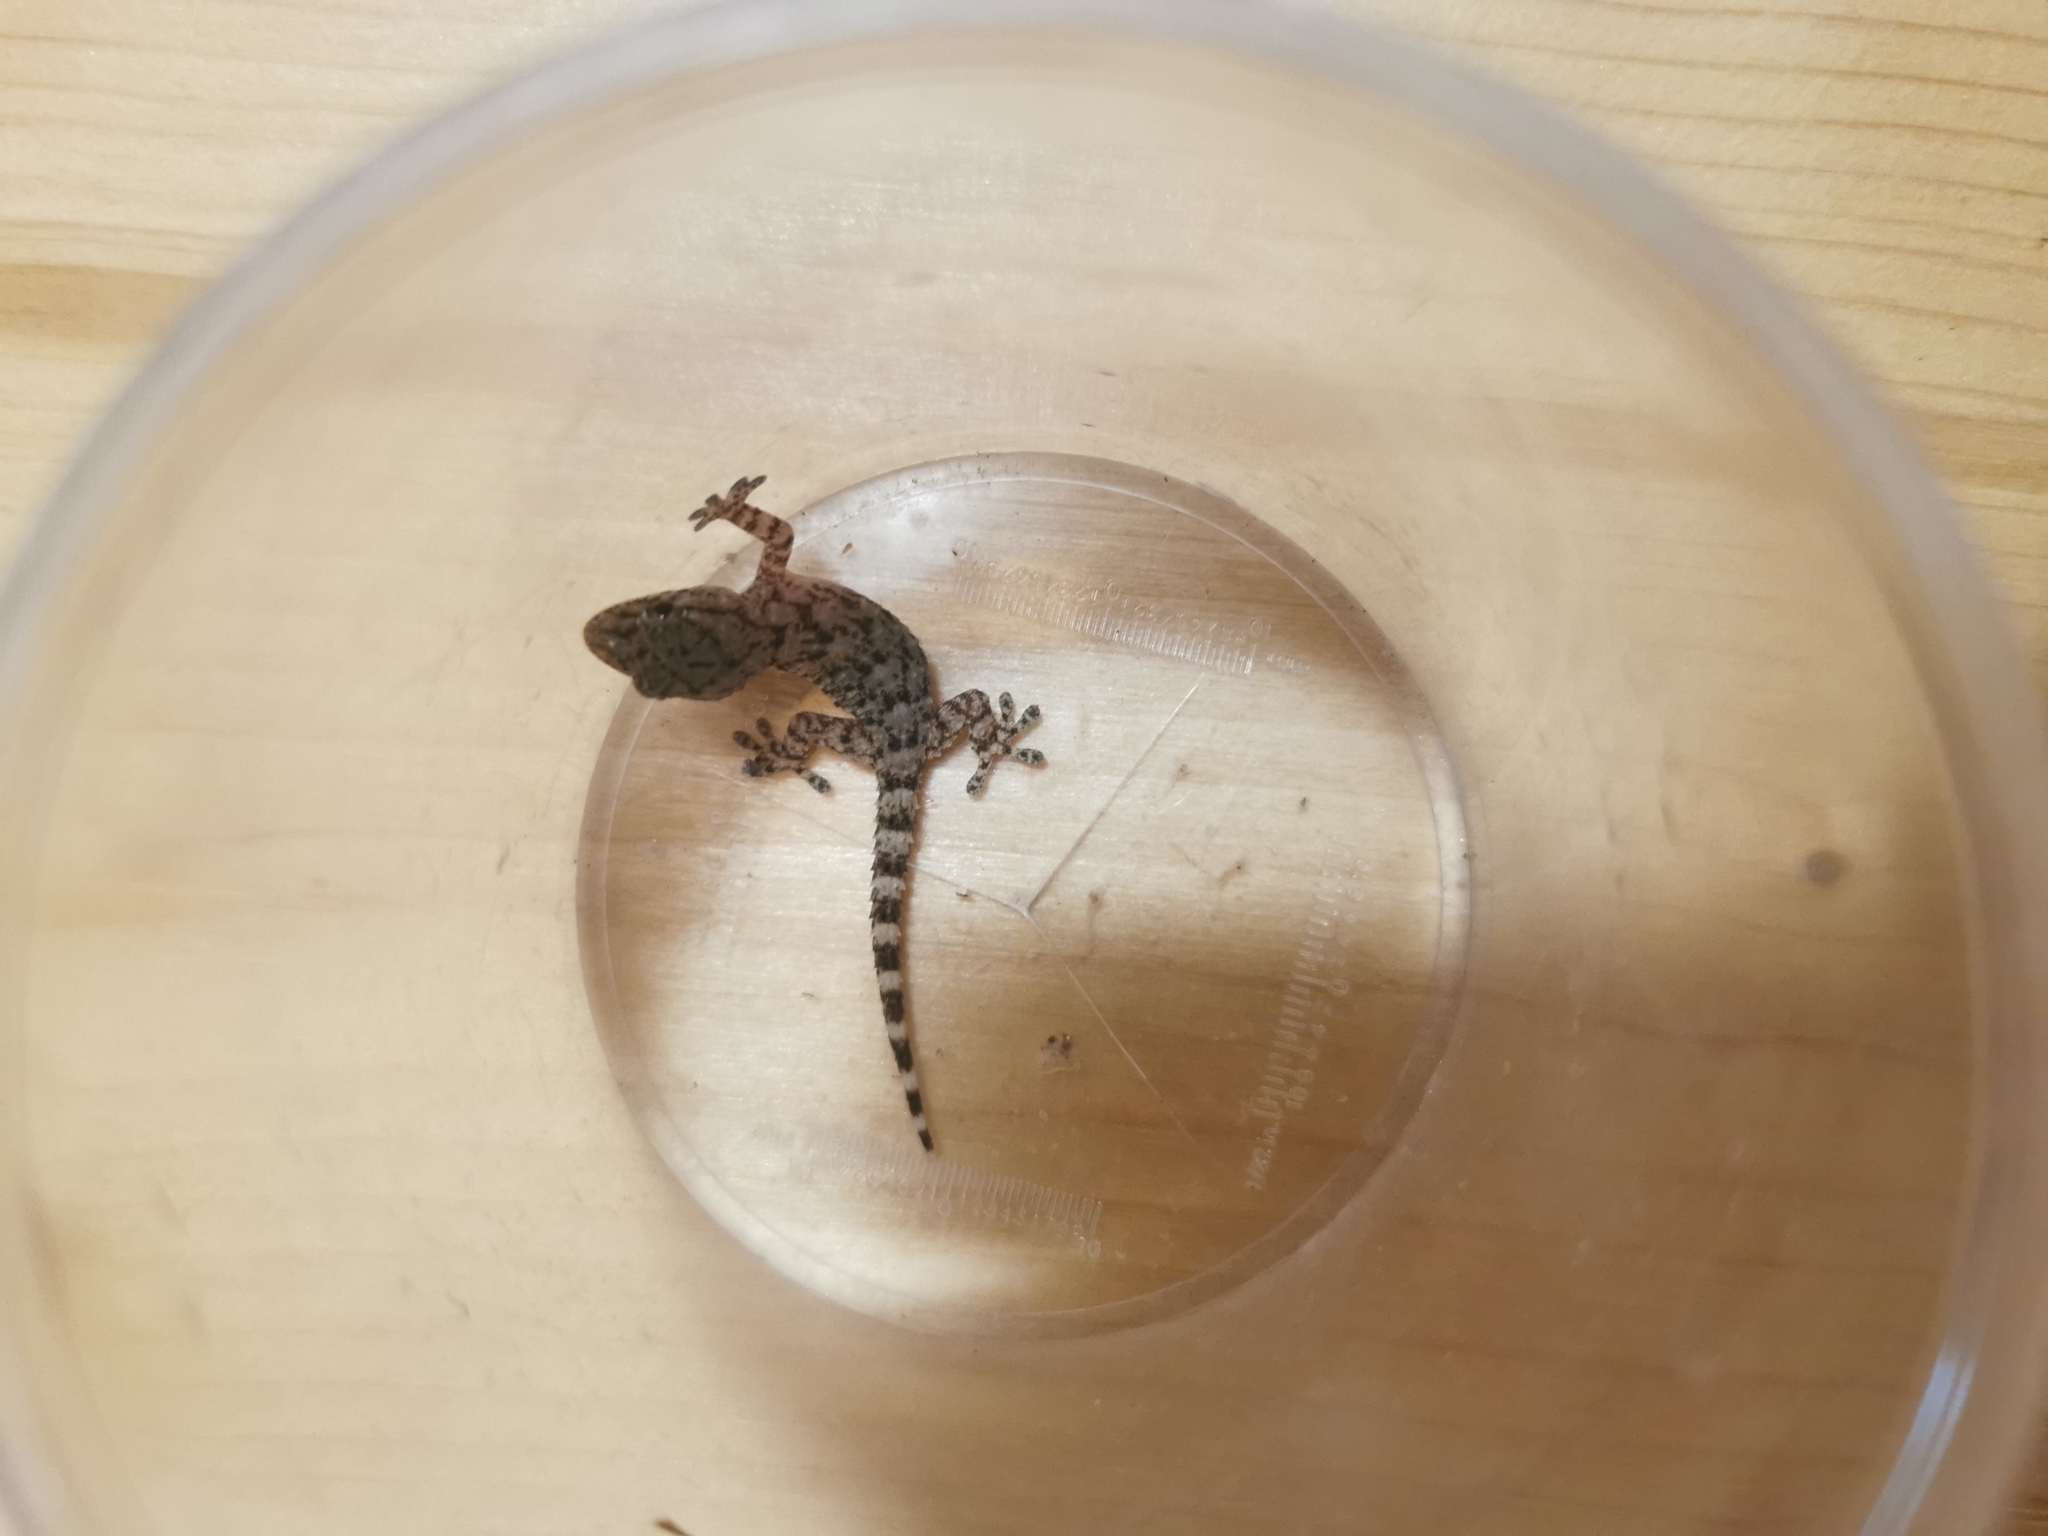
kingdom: Animalia
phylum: Chordata
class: Squamata
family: Phyllodactylidae
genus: Tarentola
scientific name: Tarentola mauritanica
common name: Moorish gecko
